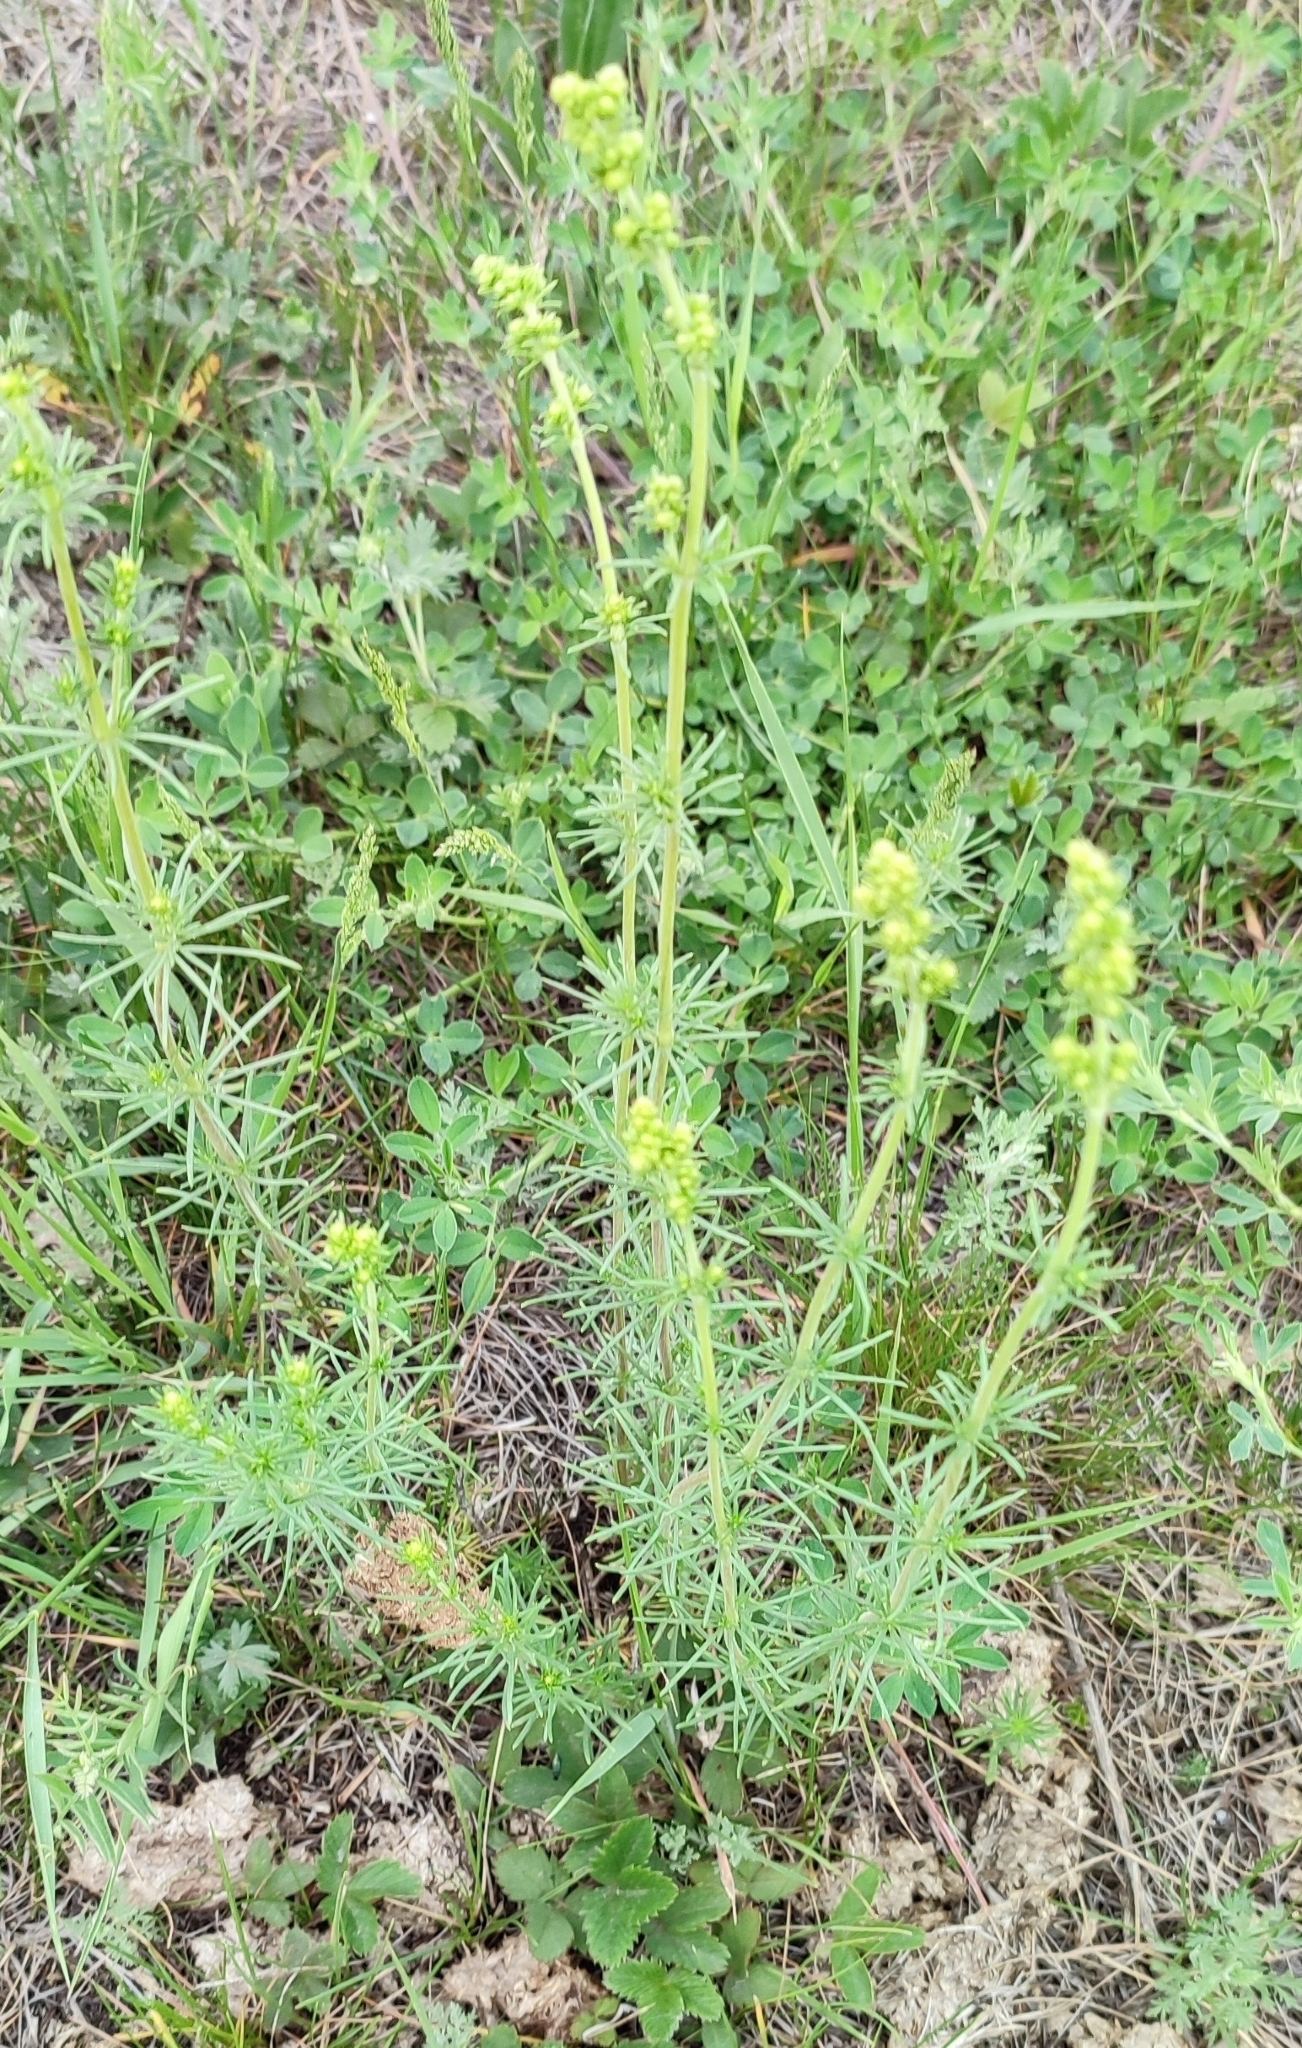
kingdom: Plantae
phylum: Tracheophyta
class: Magnoliopsida
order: Gentianales
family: Rubiaceae
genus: Galium
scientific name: Galium verum
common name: Lady's bedstraw
